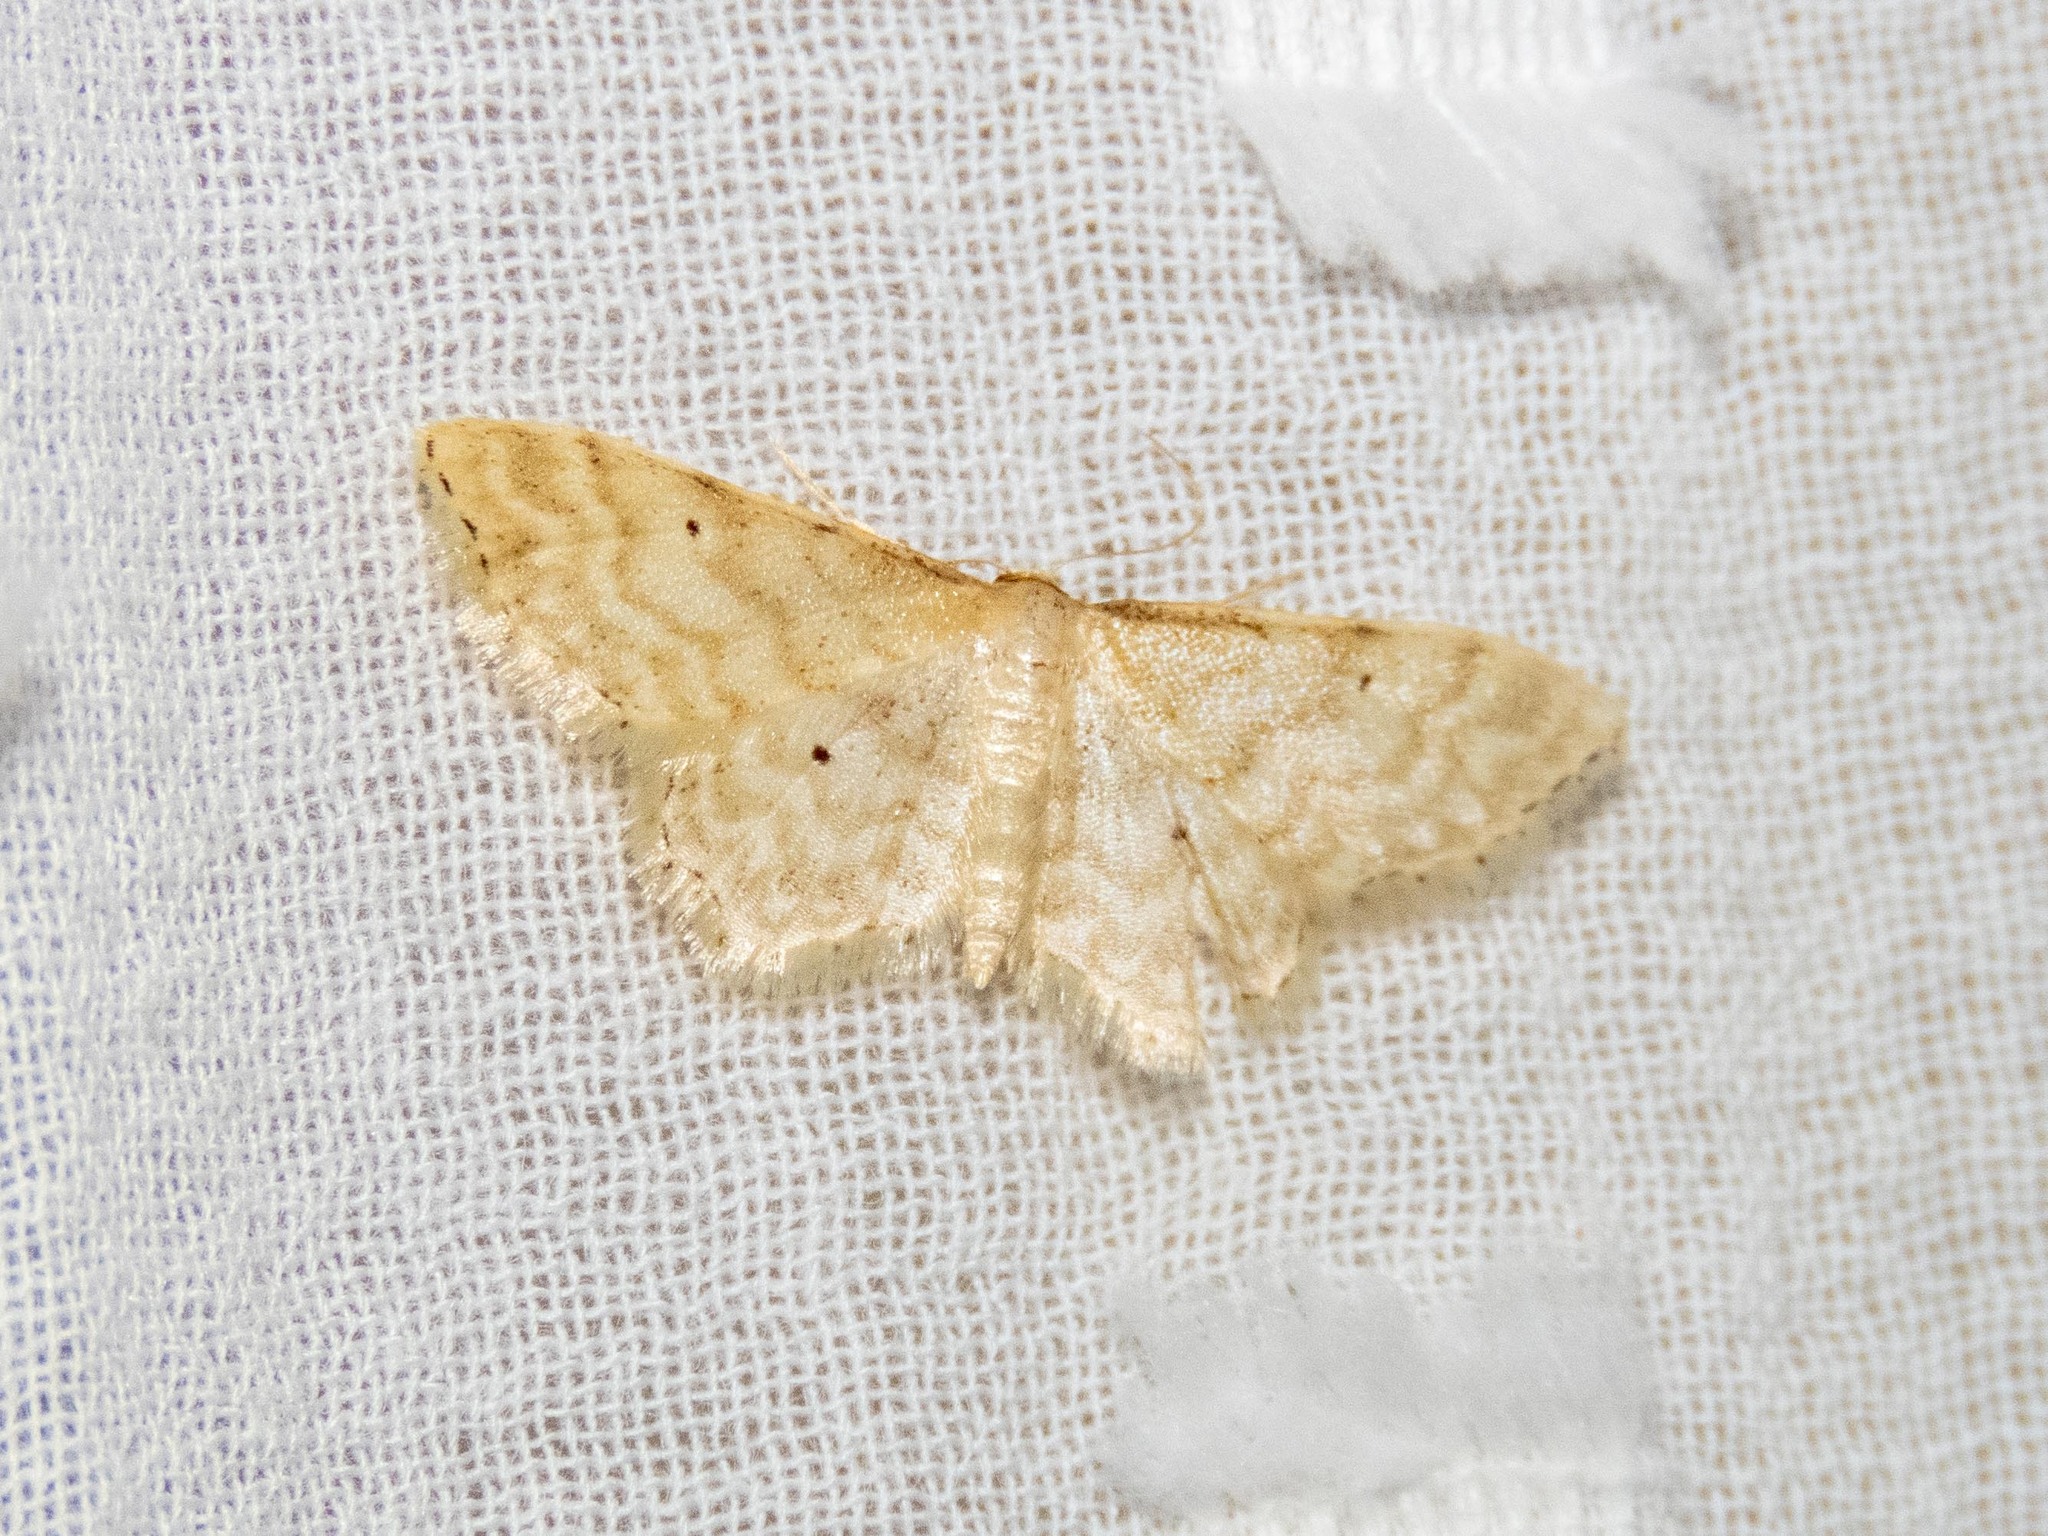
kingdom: Animalia
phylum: Arthropoda
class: Insecta
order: Lepidoptera
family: Geometridae
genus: Idaea
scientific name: Idaea fuscovenosa
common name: Dwarf cream wave
